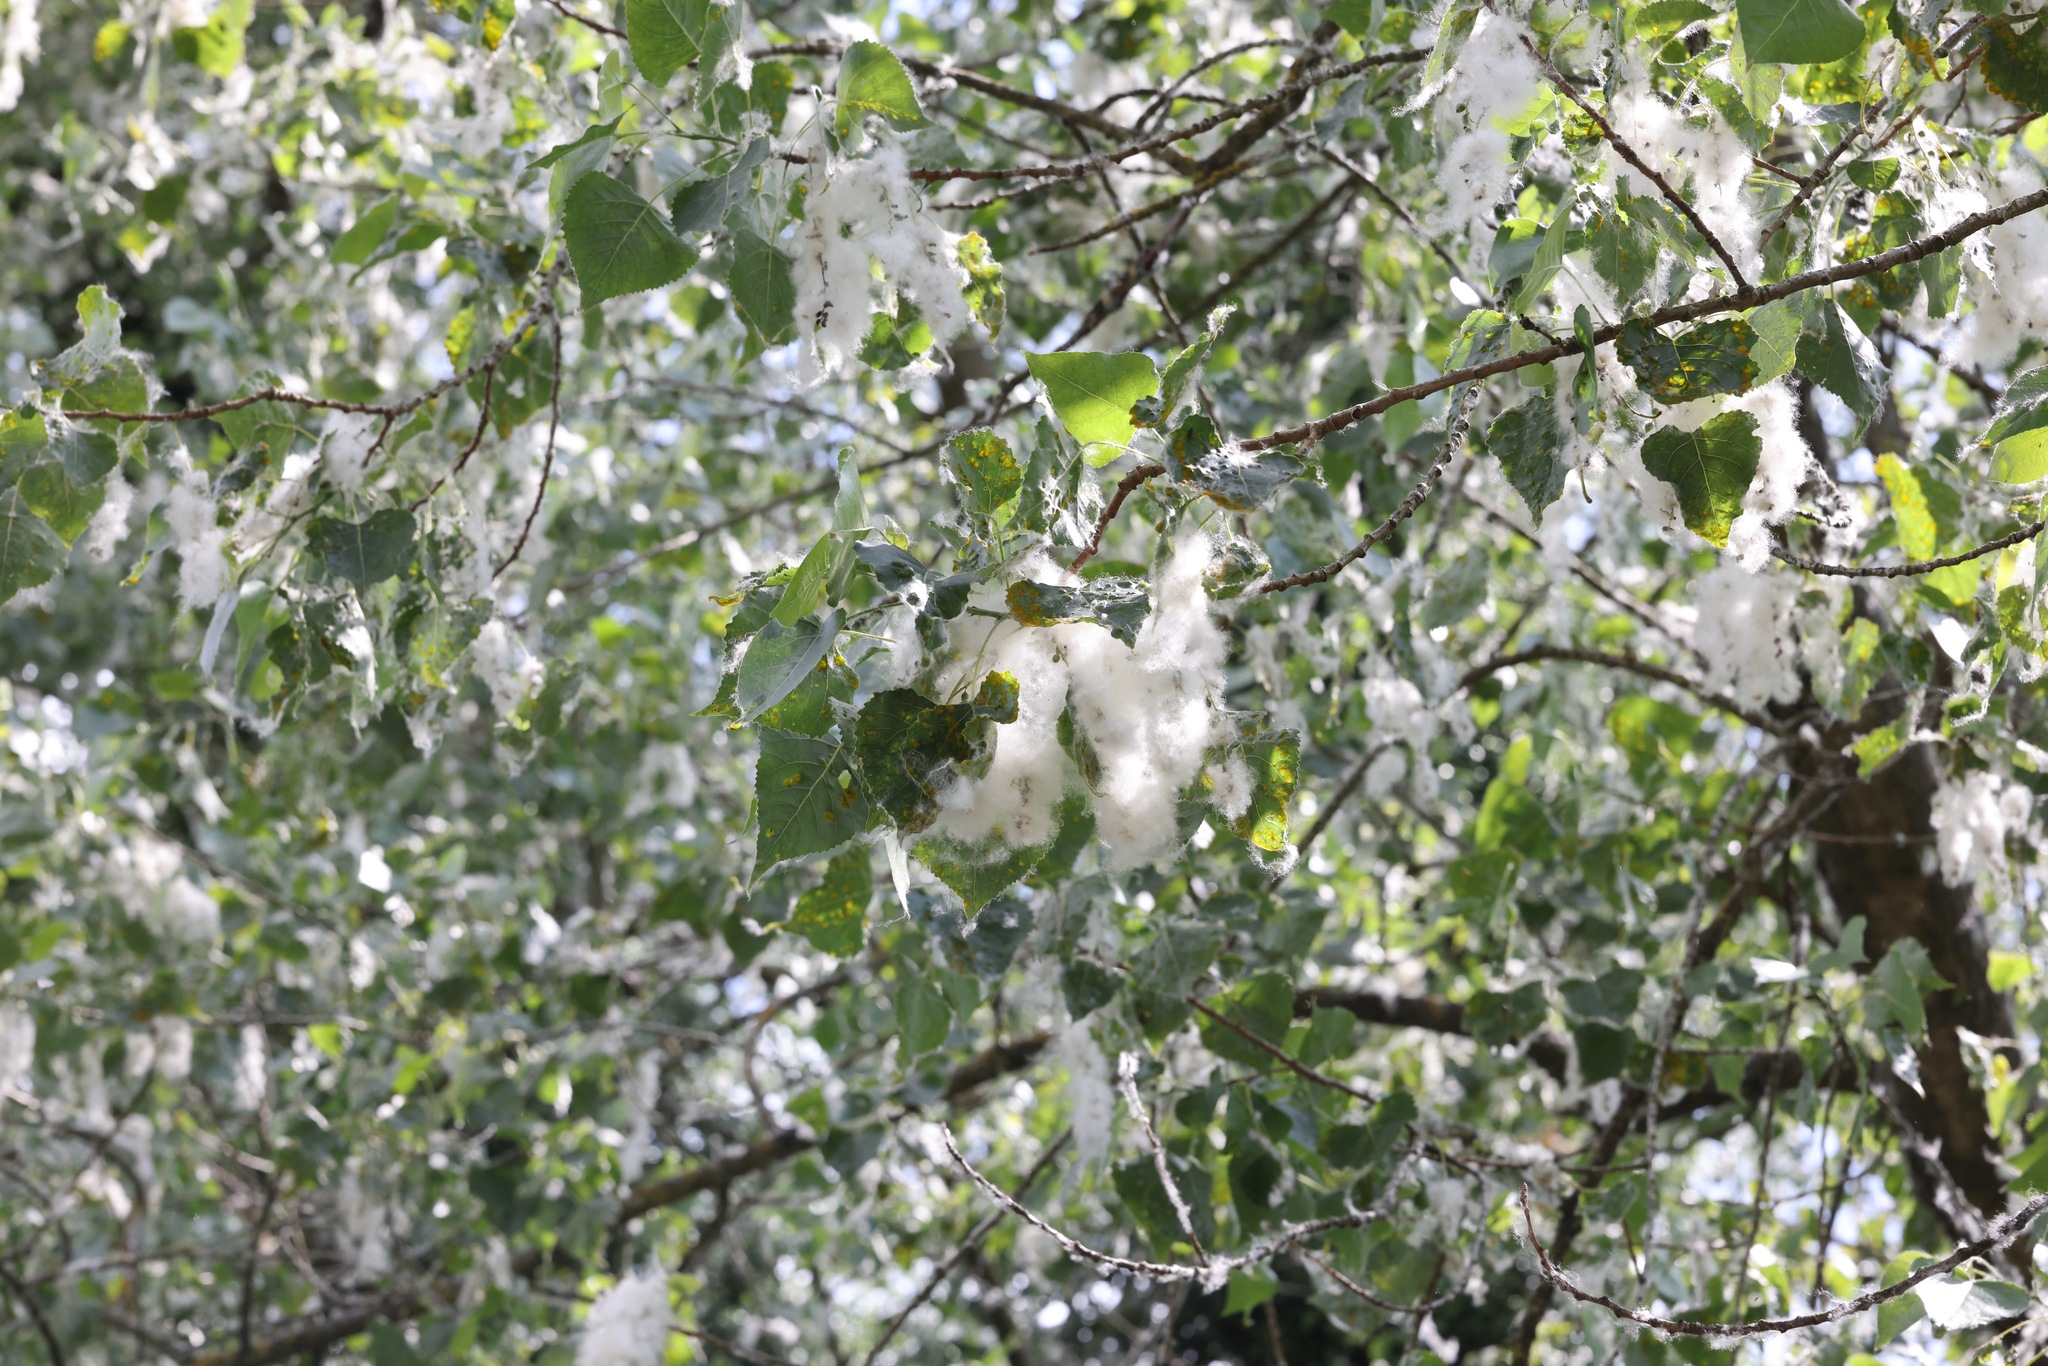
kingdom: Plantae
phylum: Tracheophyta
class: Magnoliopsida
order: Malpighiales
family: Salicaceae
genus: Populus
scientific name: Populus nigra
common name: Black poplar
